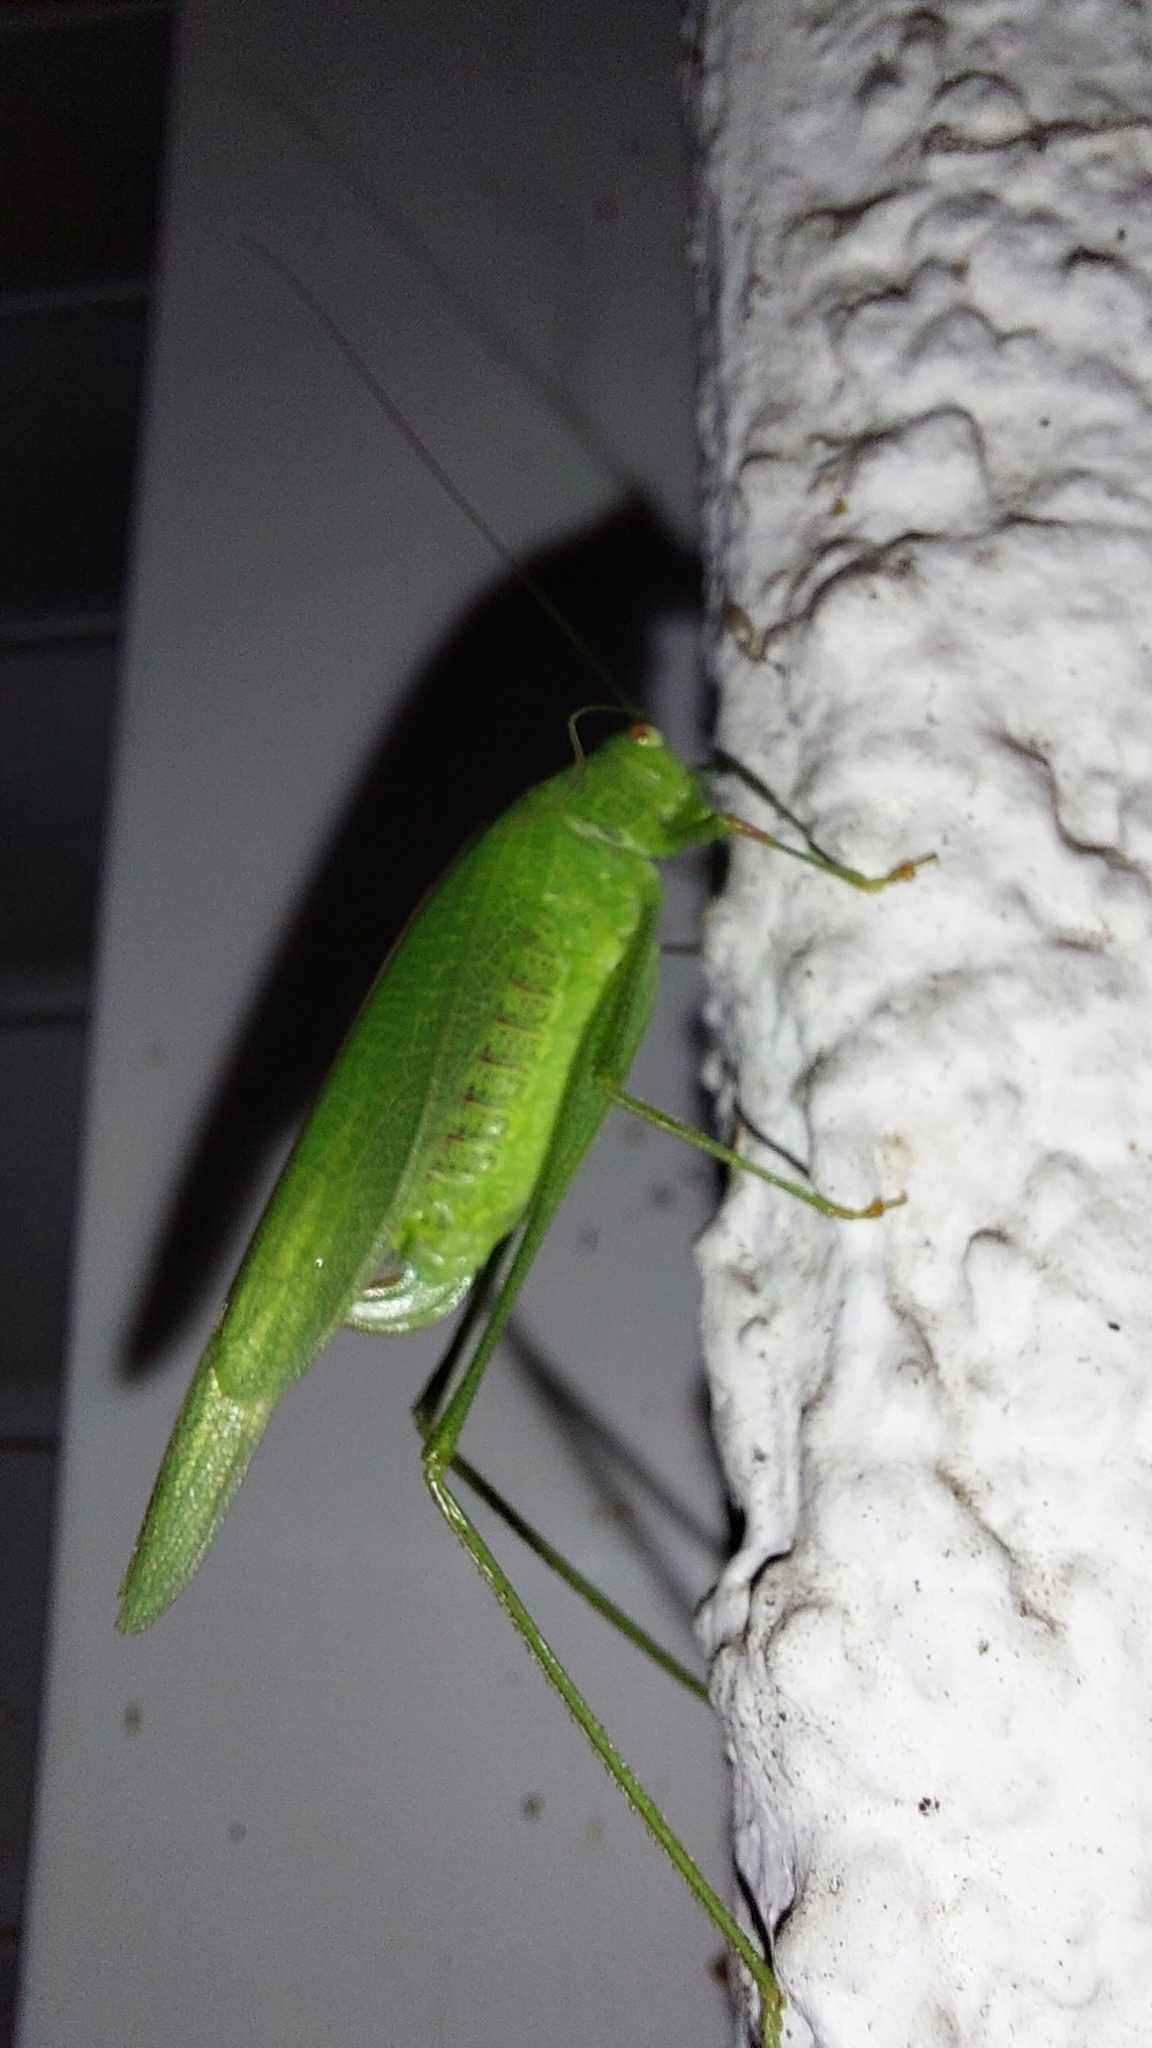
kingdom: Animalia
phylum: Arthropoda
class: Insecta
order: Orthoptera
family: Tettigoniidae
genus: Phaneroptera
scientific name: Phaneroptera nana
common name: Southern sickle bush-cricket
